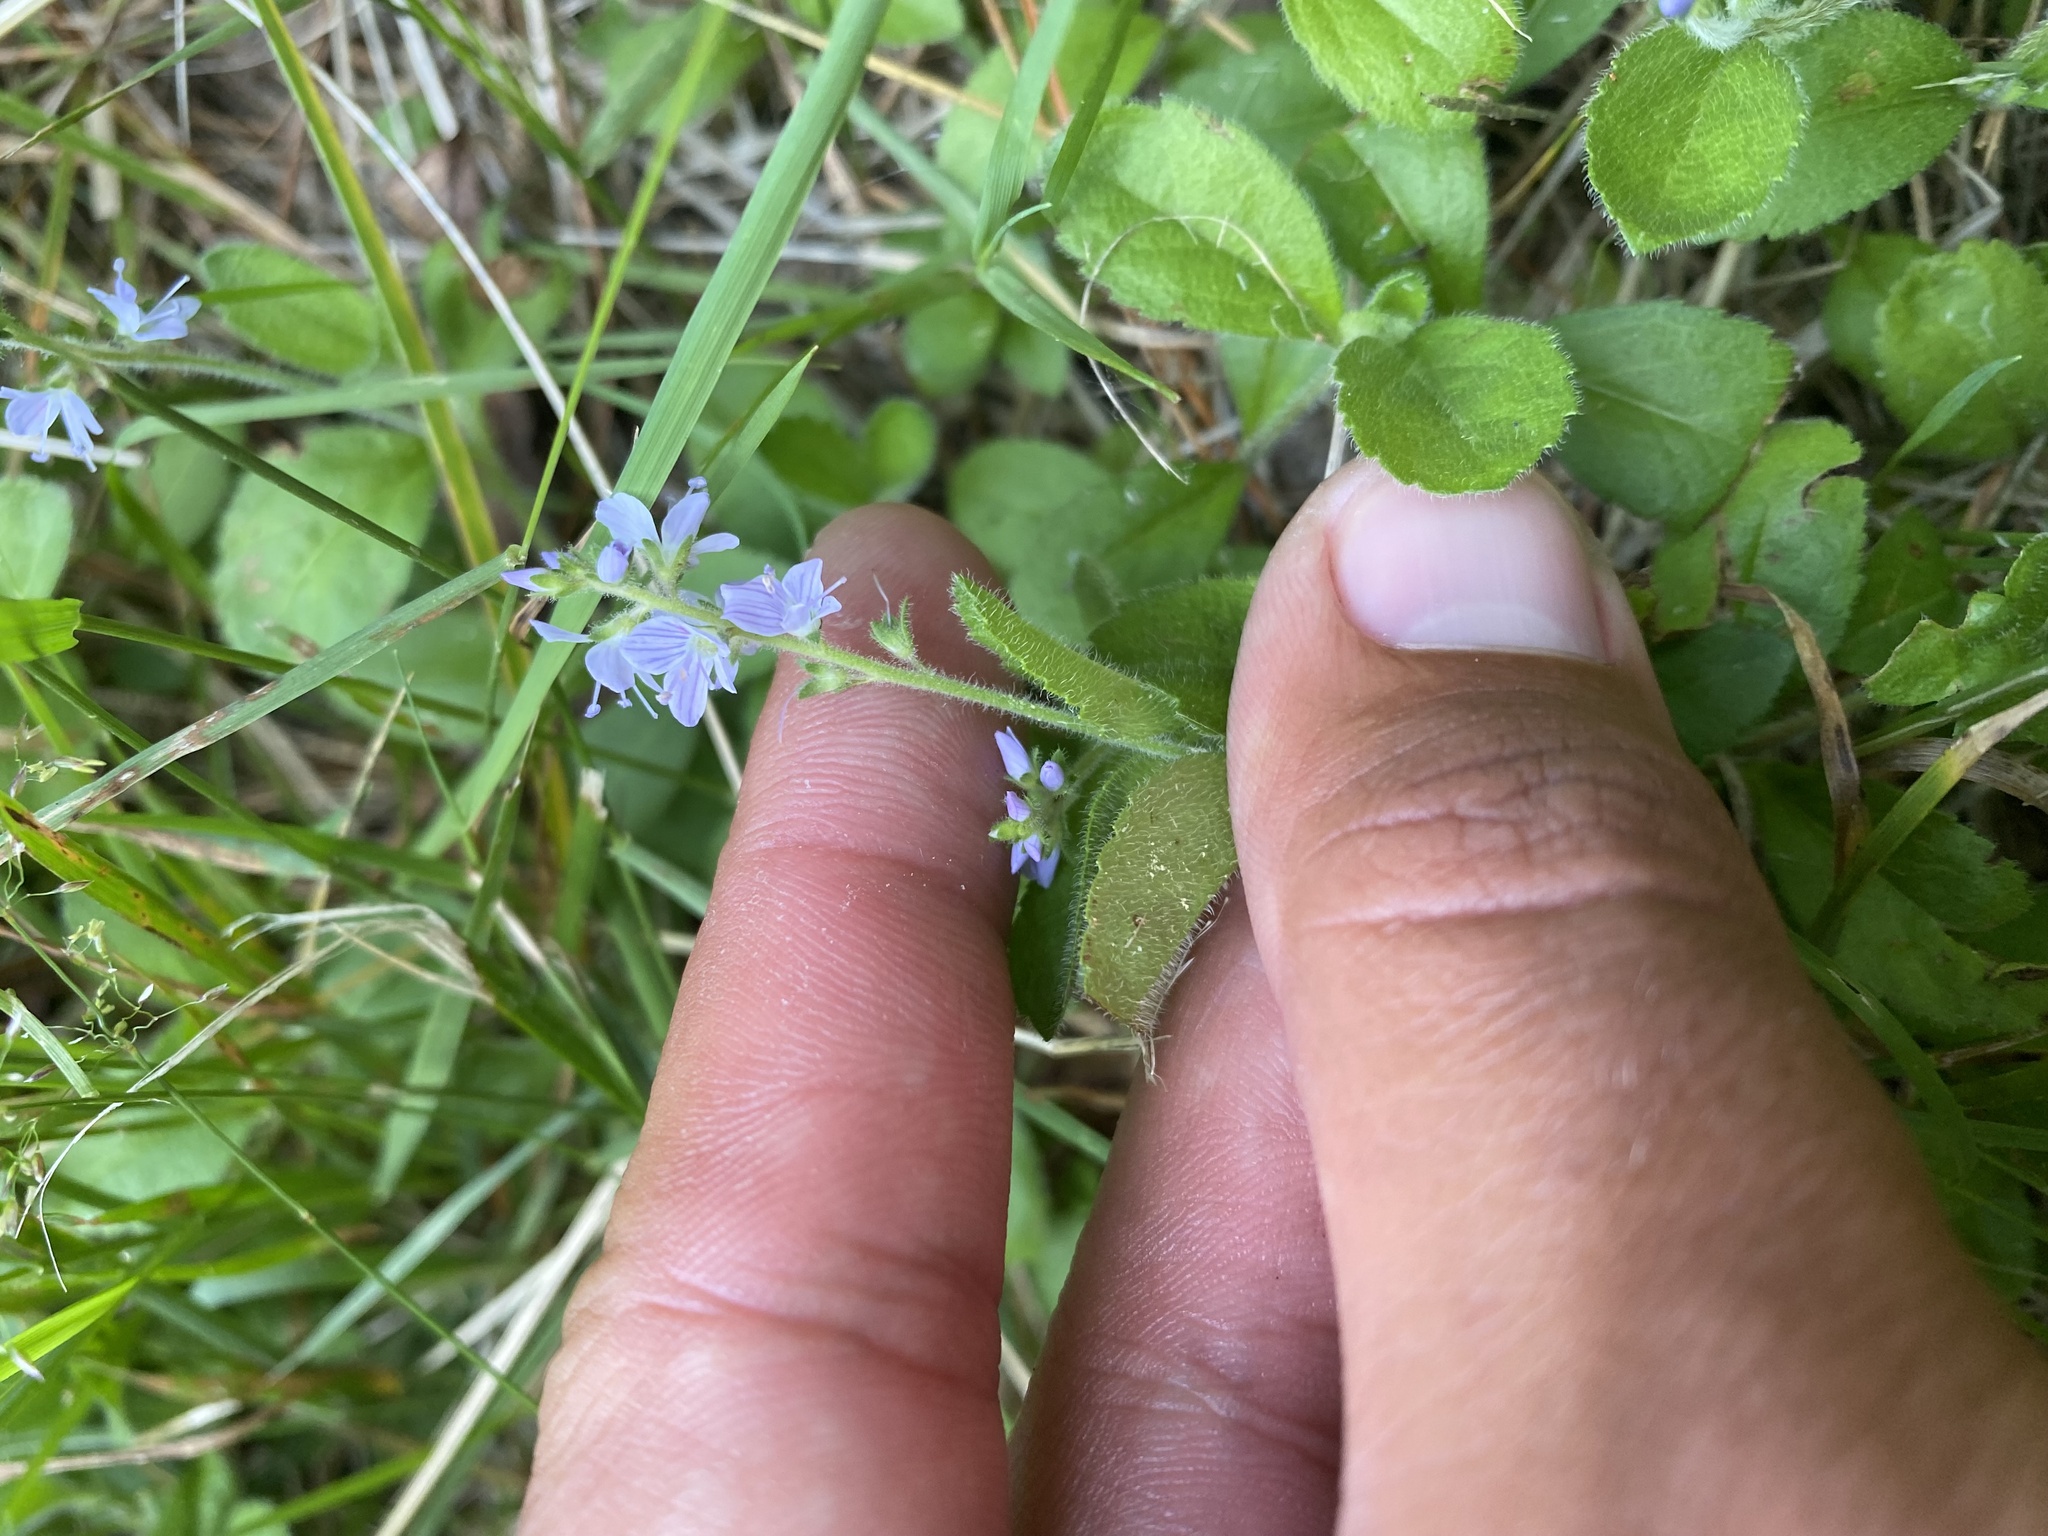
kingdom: Plantae
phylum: Tracheophyta
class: Magnoliopsida
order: Lamiales
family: Plantaginaceae
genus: Veronica
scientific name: Veronica officinalis
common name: Common speedwell
